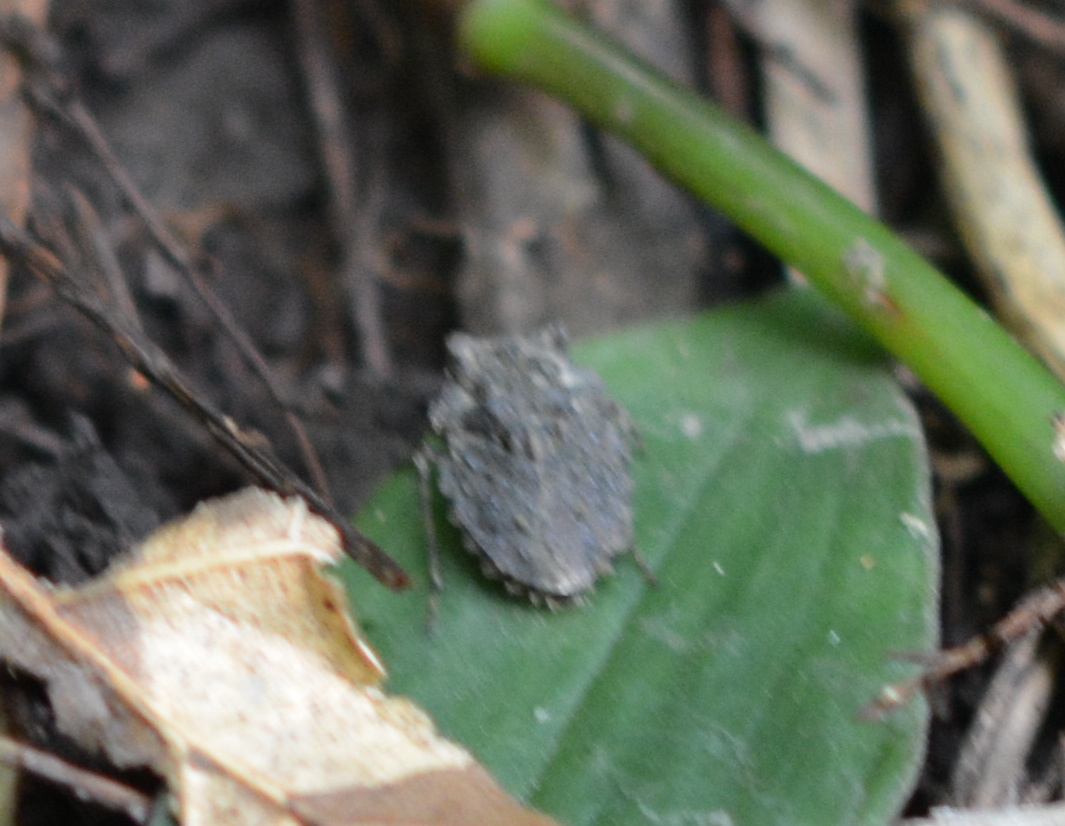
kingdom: Animalia
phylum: Arthropoda
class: Insecta
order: Hemiptera
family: Gelastocoridae
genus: Gelastocoris
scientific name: Gelastocoris oculatus
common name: Toad bug
